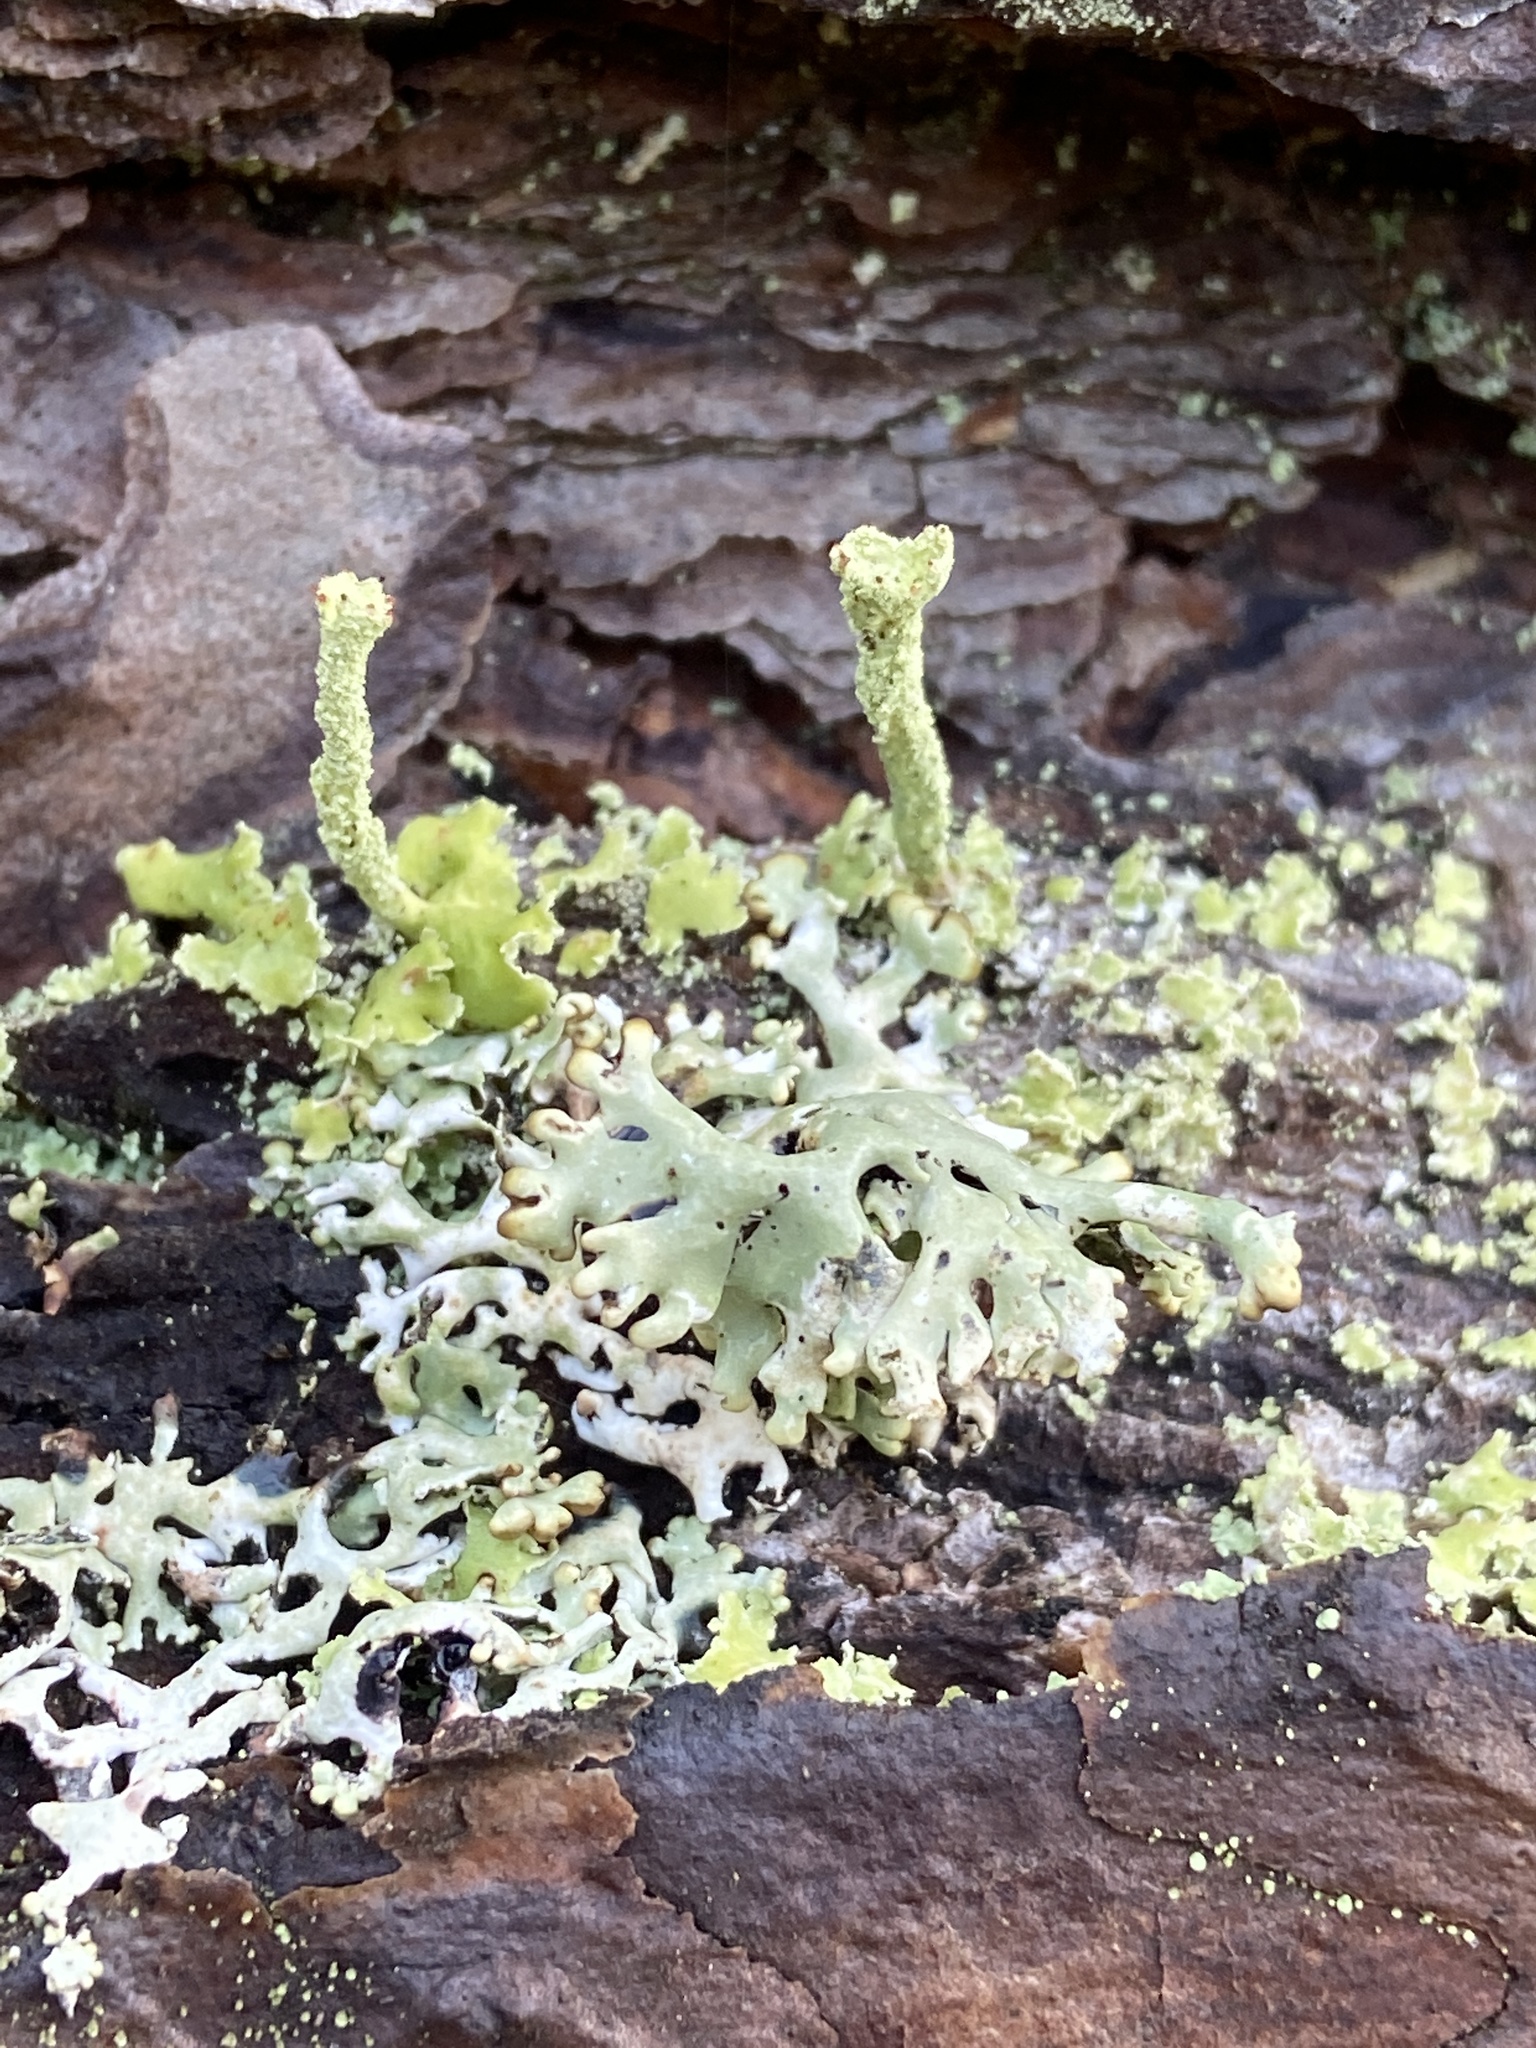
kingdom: Fungi
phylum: Ascomycota
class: Lecanoromycetes
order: Lecanorales
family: Parmeliaceae
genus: Hypogymnia
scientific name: Hypogymnia physodes
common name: Dark crottle
